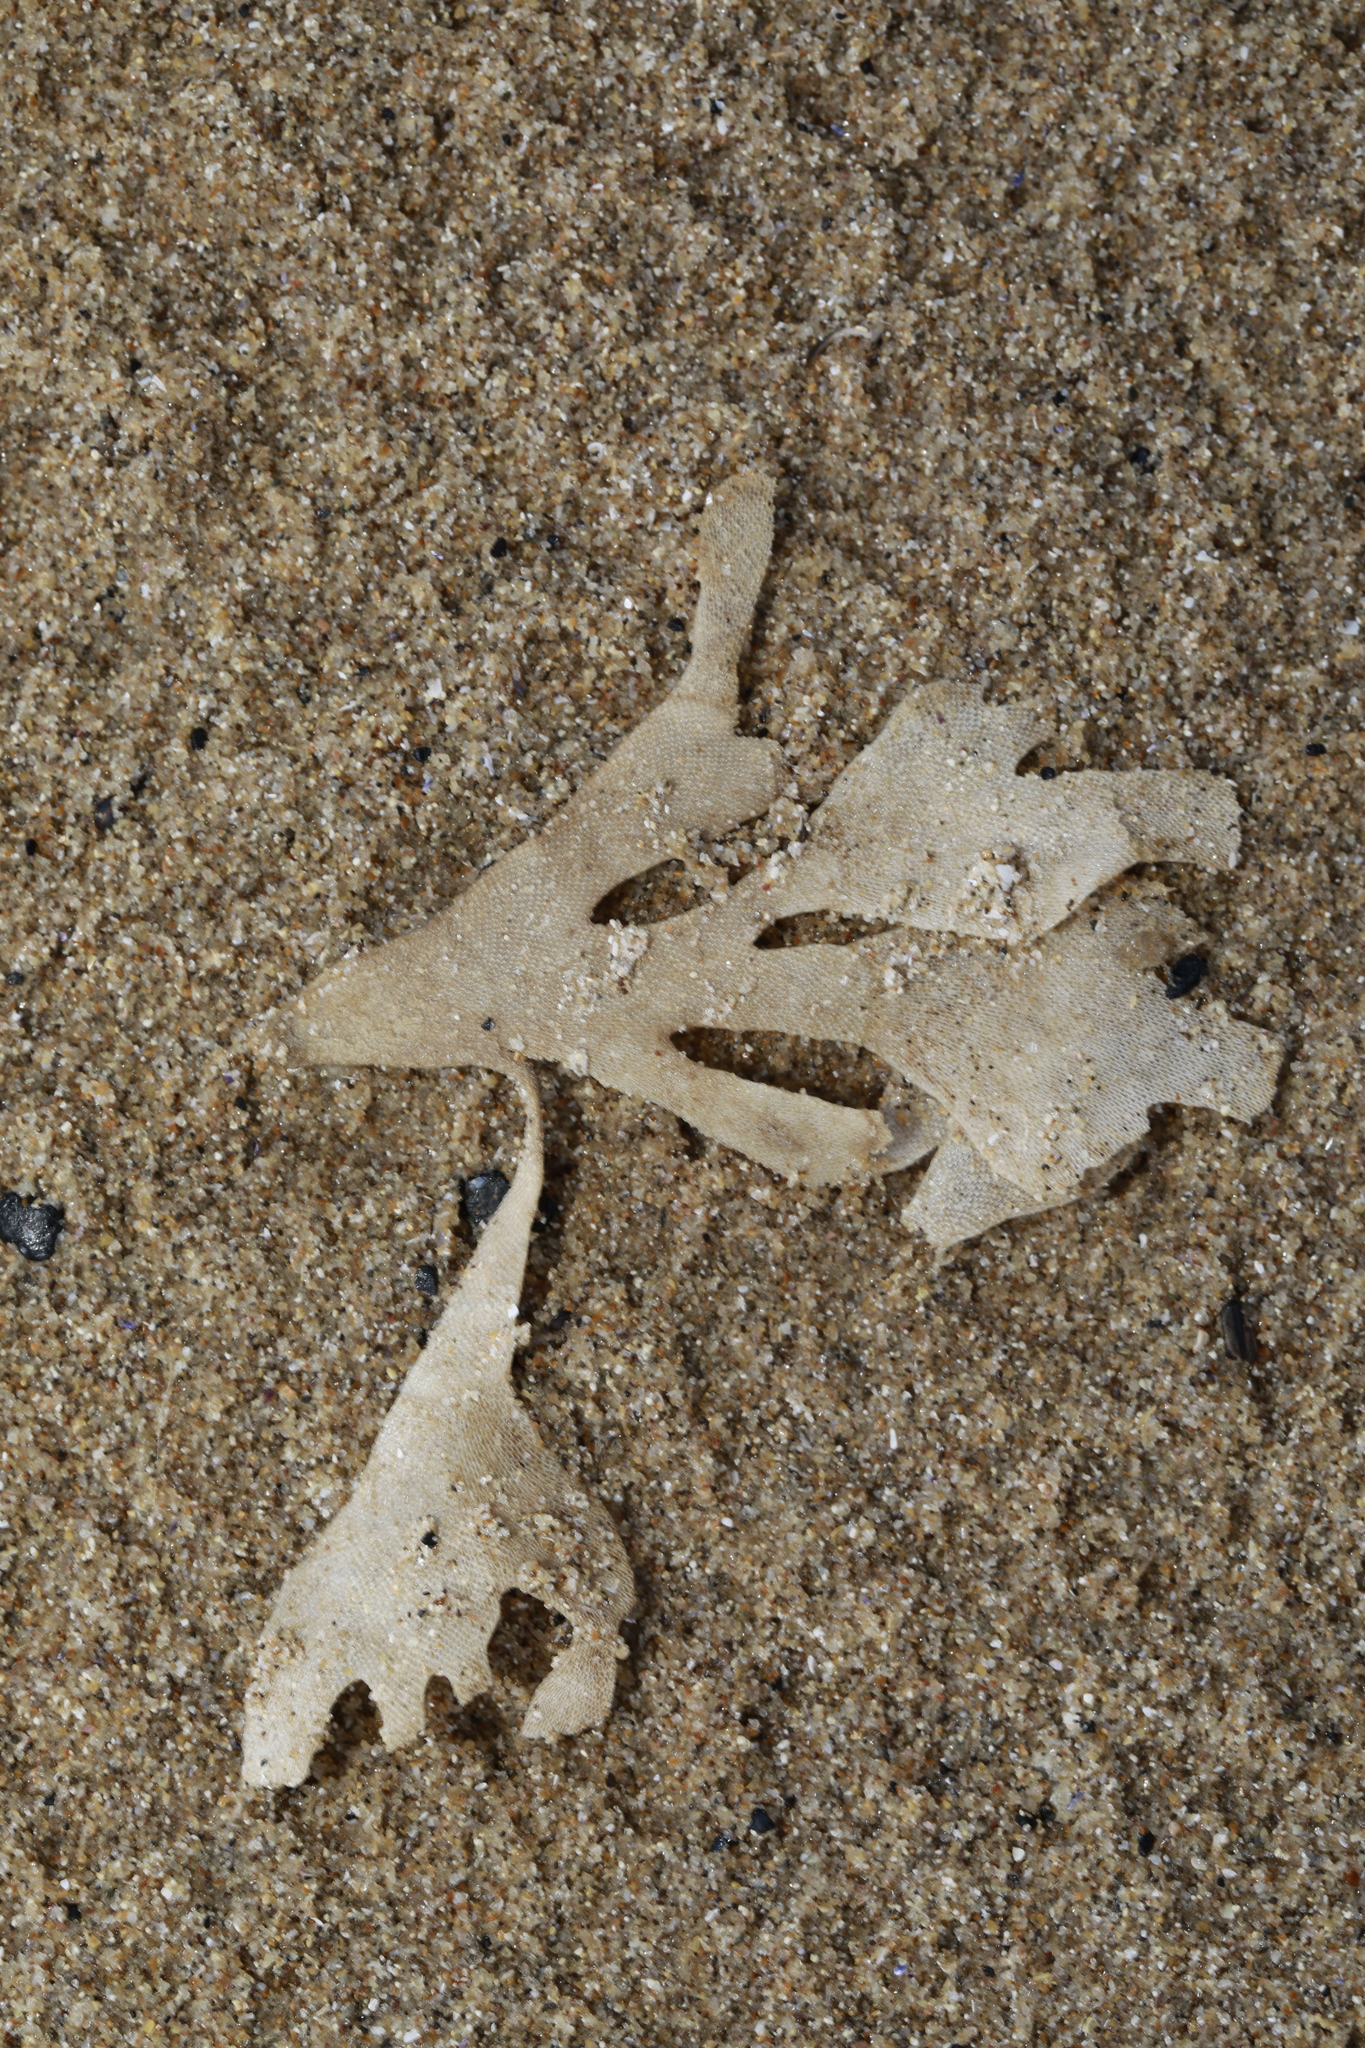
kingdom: Animalia
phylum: Bryozoa
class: Gymnolaemata
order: Cheilostomatida
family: Flustridae
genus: Flustra
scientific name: Flustra foliacea
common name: Hornwrack
